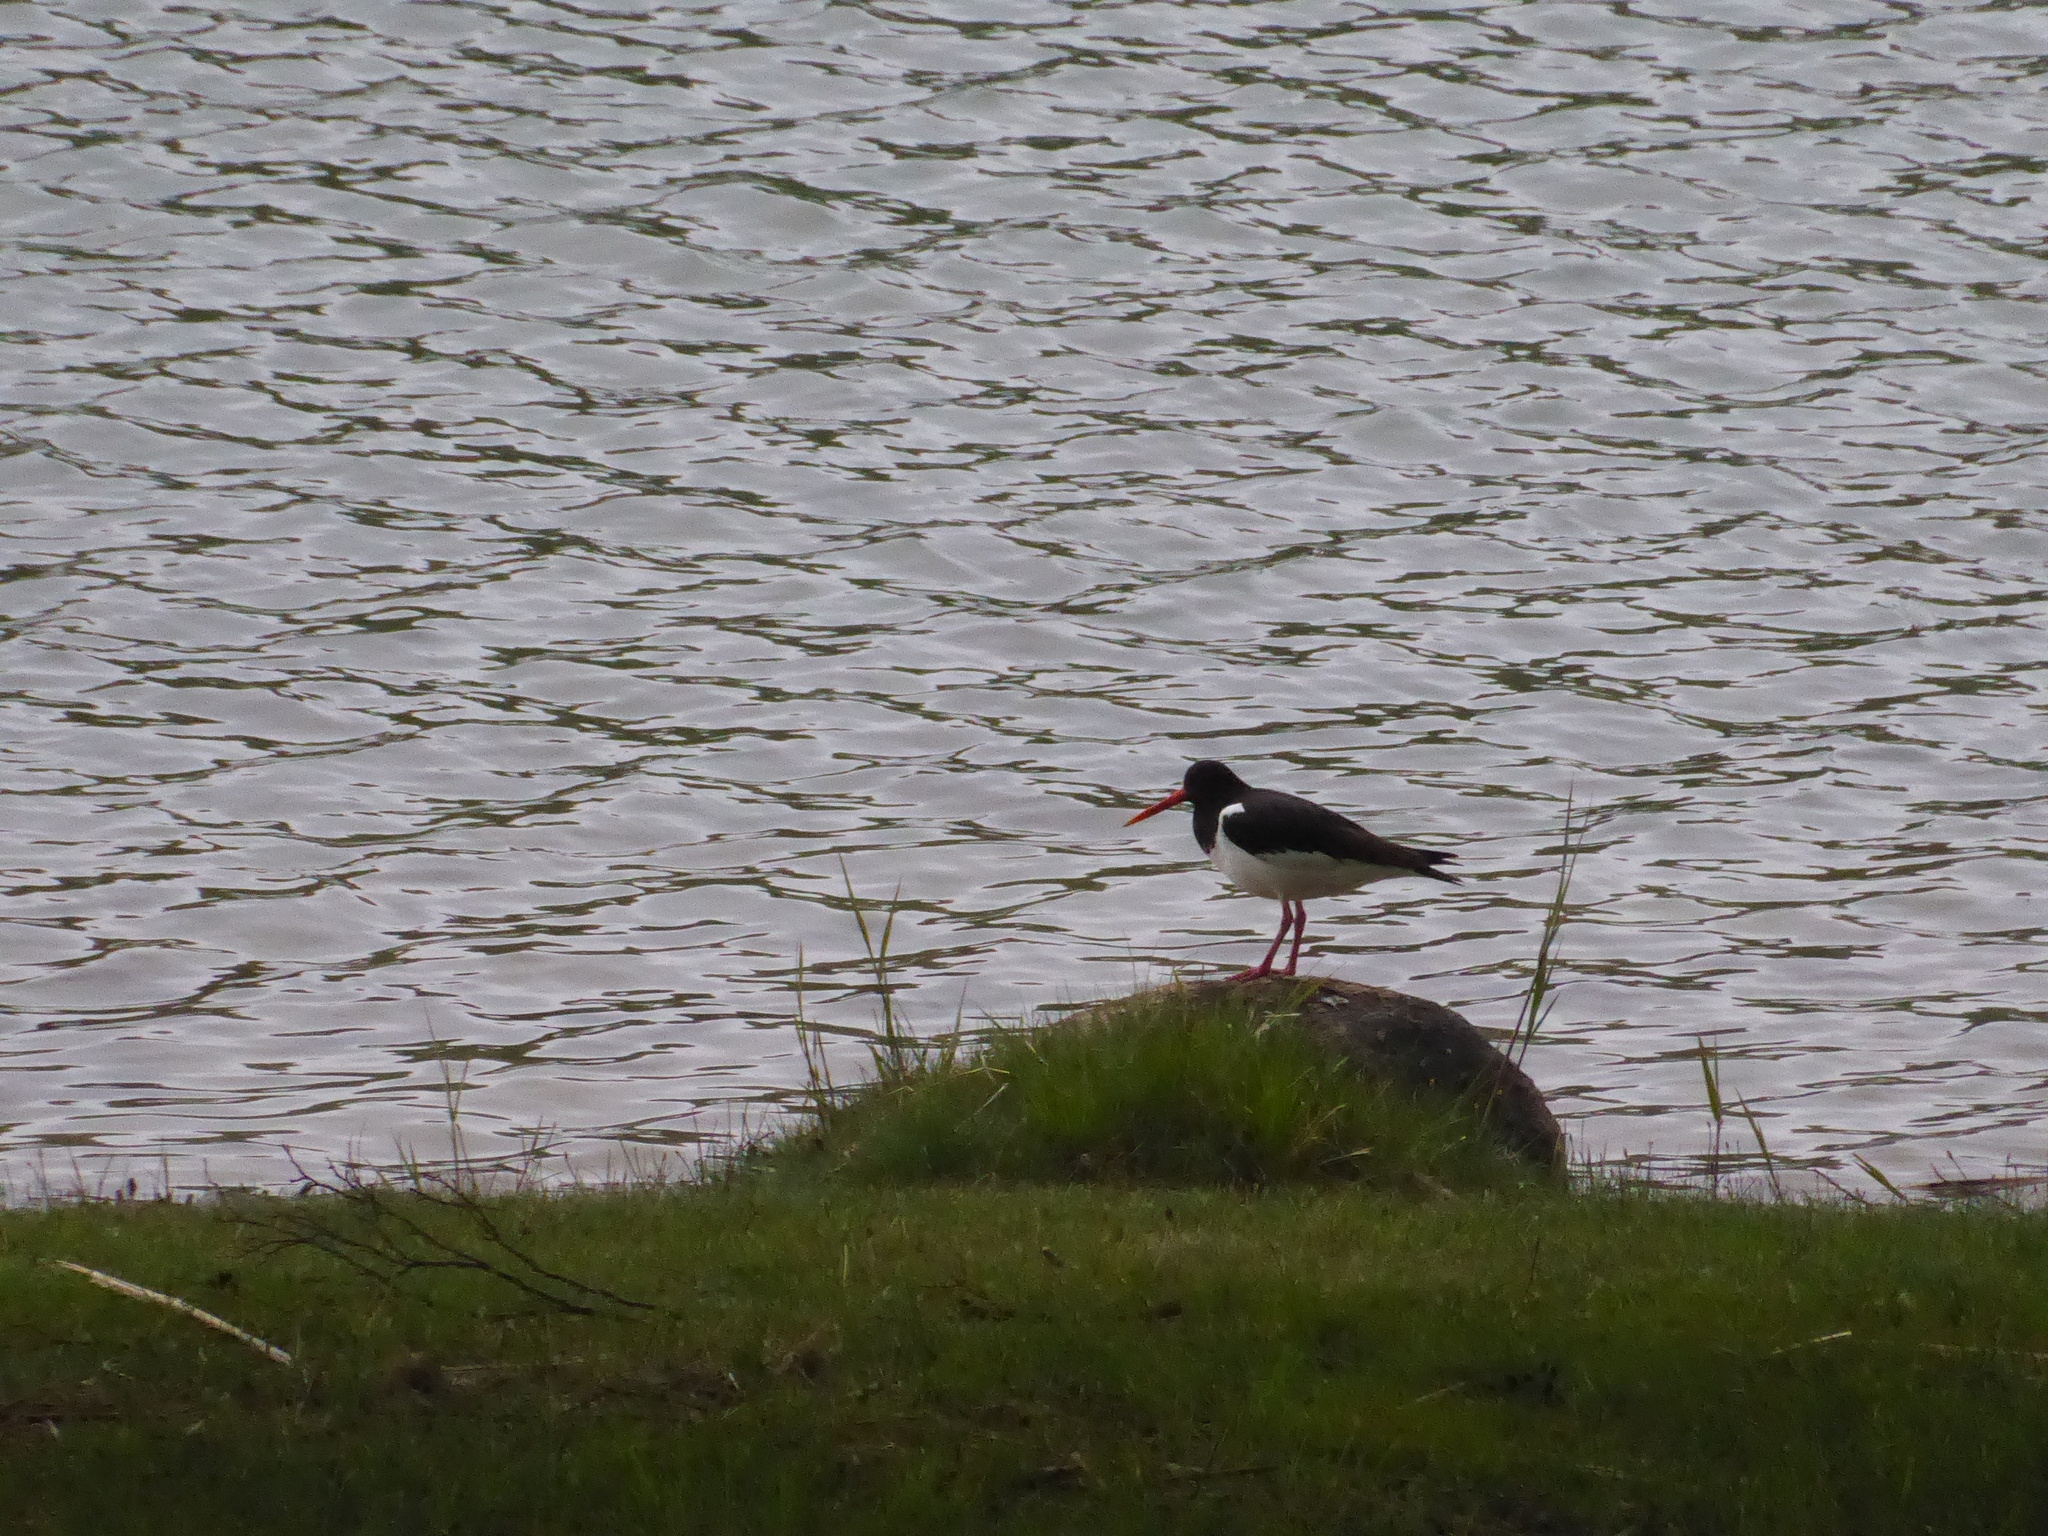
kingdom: Animalia
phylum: Chordata
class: Aves
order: Charadriiformes
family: Haematopodidae
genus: Haematopus
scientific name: Haematopus ostralegus
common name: Eurasian oystercatcher
